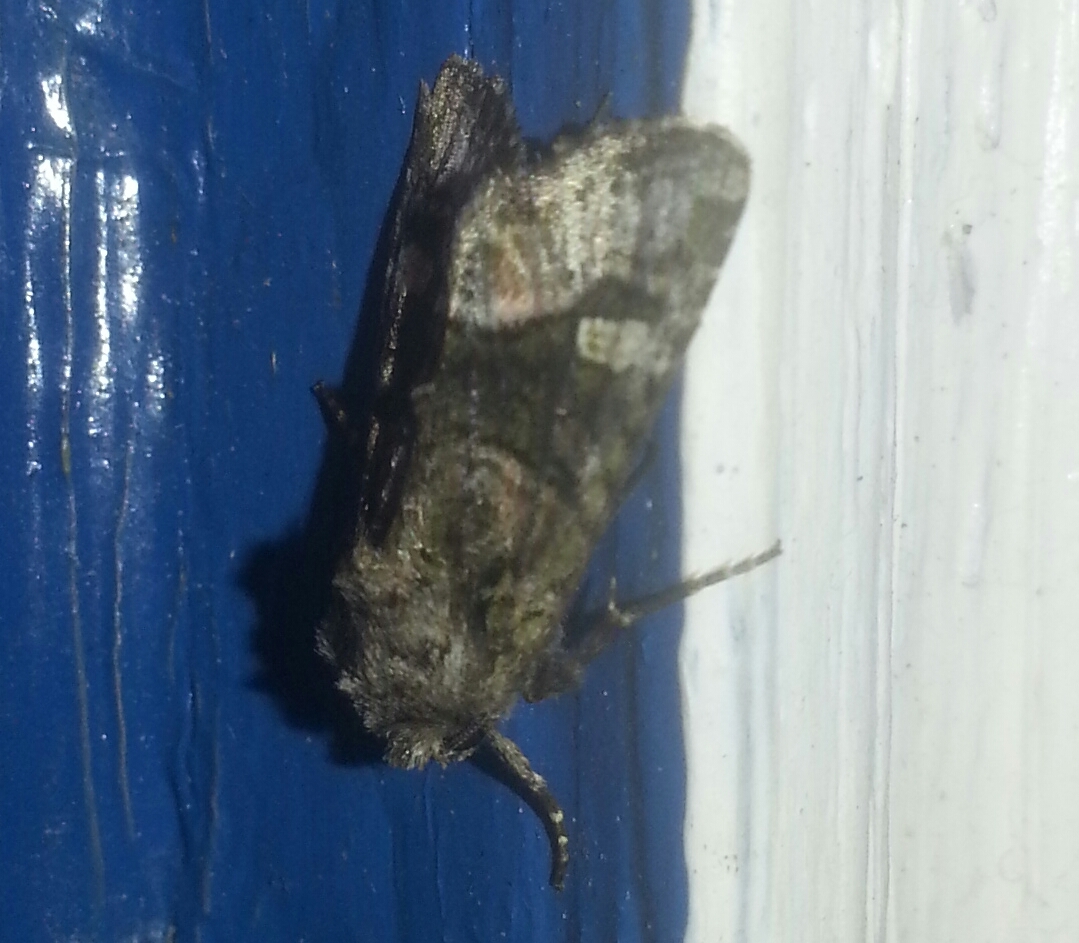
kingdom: Animalia
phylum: Arthropoda
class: Insecta
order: Lepidoptera
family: Noctuidae
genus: Lacinipolia
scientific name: Lacinipolia olivacea
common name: Olive arches moth
